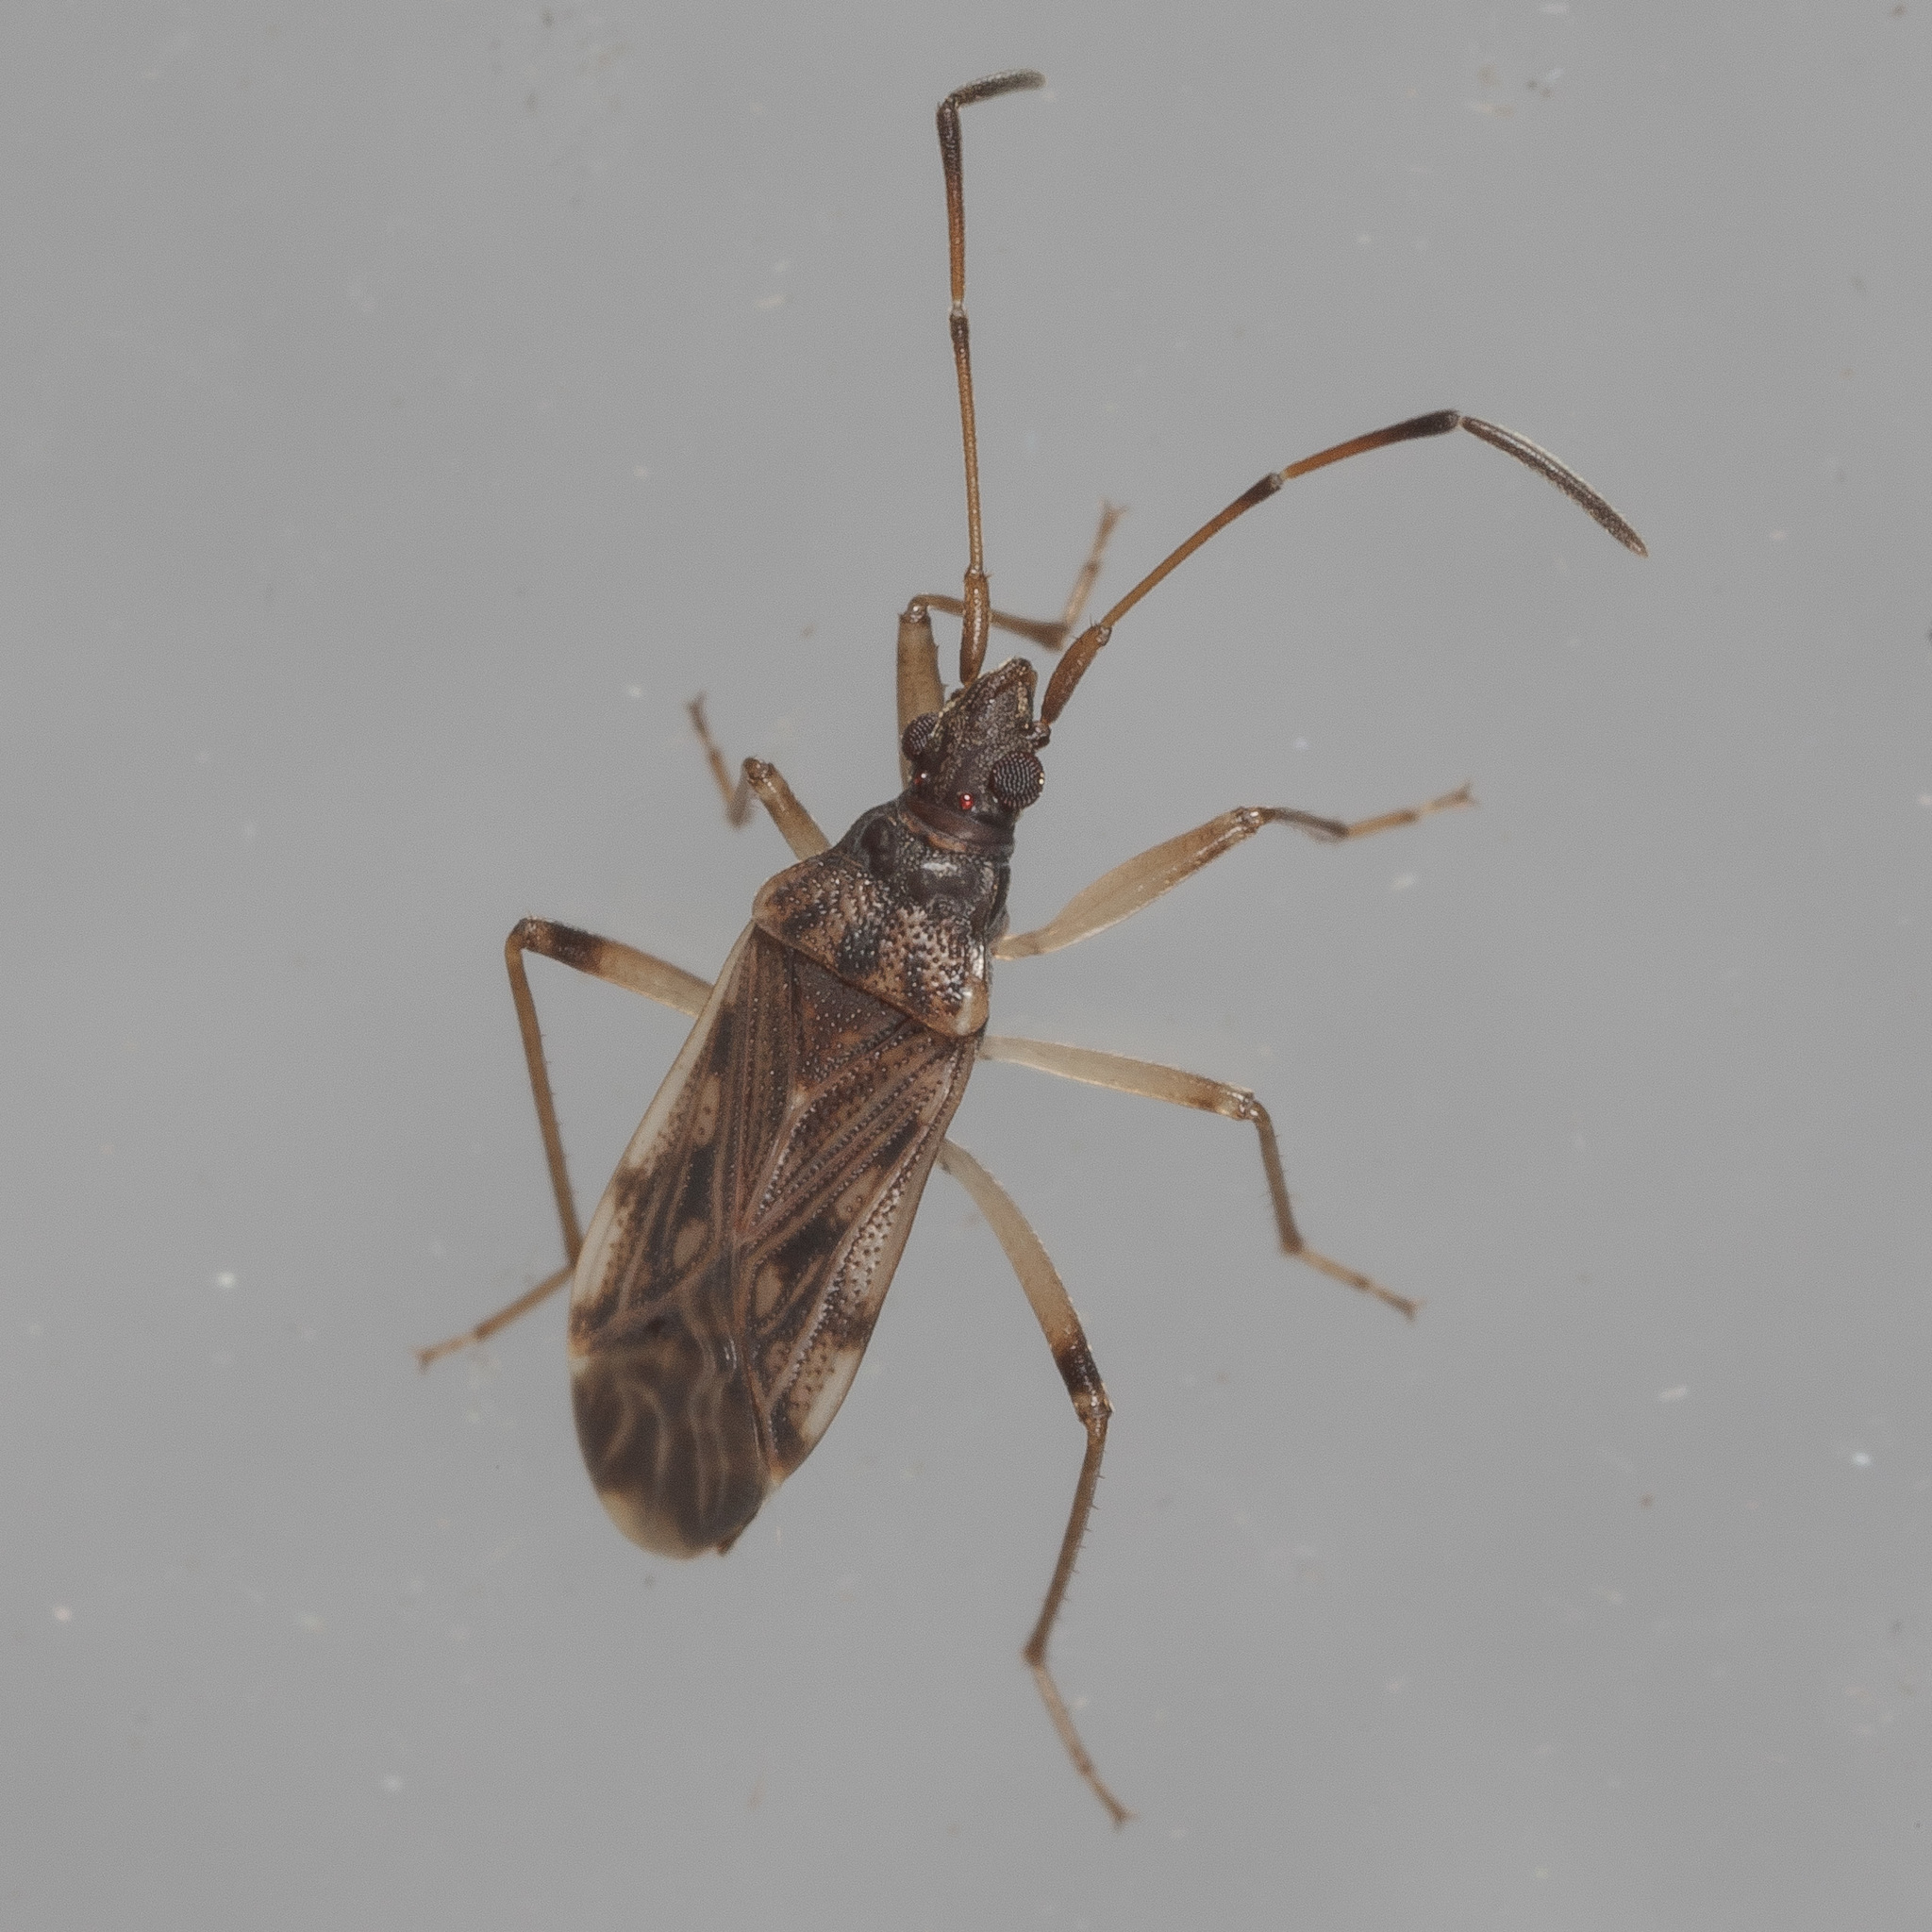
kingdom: Animalia
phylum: Arthropoda
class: Insecta
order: Hemiptera
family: Rhyparochromidae
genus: Ozophora
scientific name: Ozophora salsaverdeae
